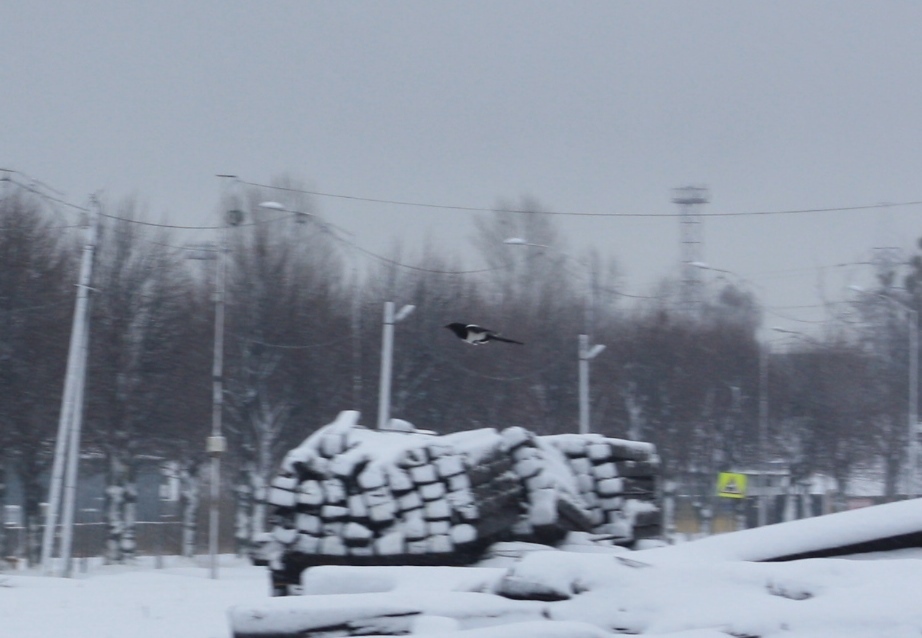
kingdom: Animalia
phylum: Chordata
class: Aves
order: Passeriformes
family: Corvidae
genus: Pica
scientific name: Pica pica
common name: Eurasian magpie
